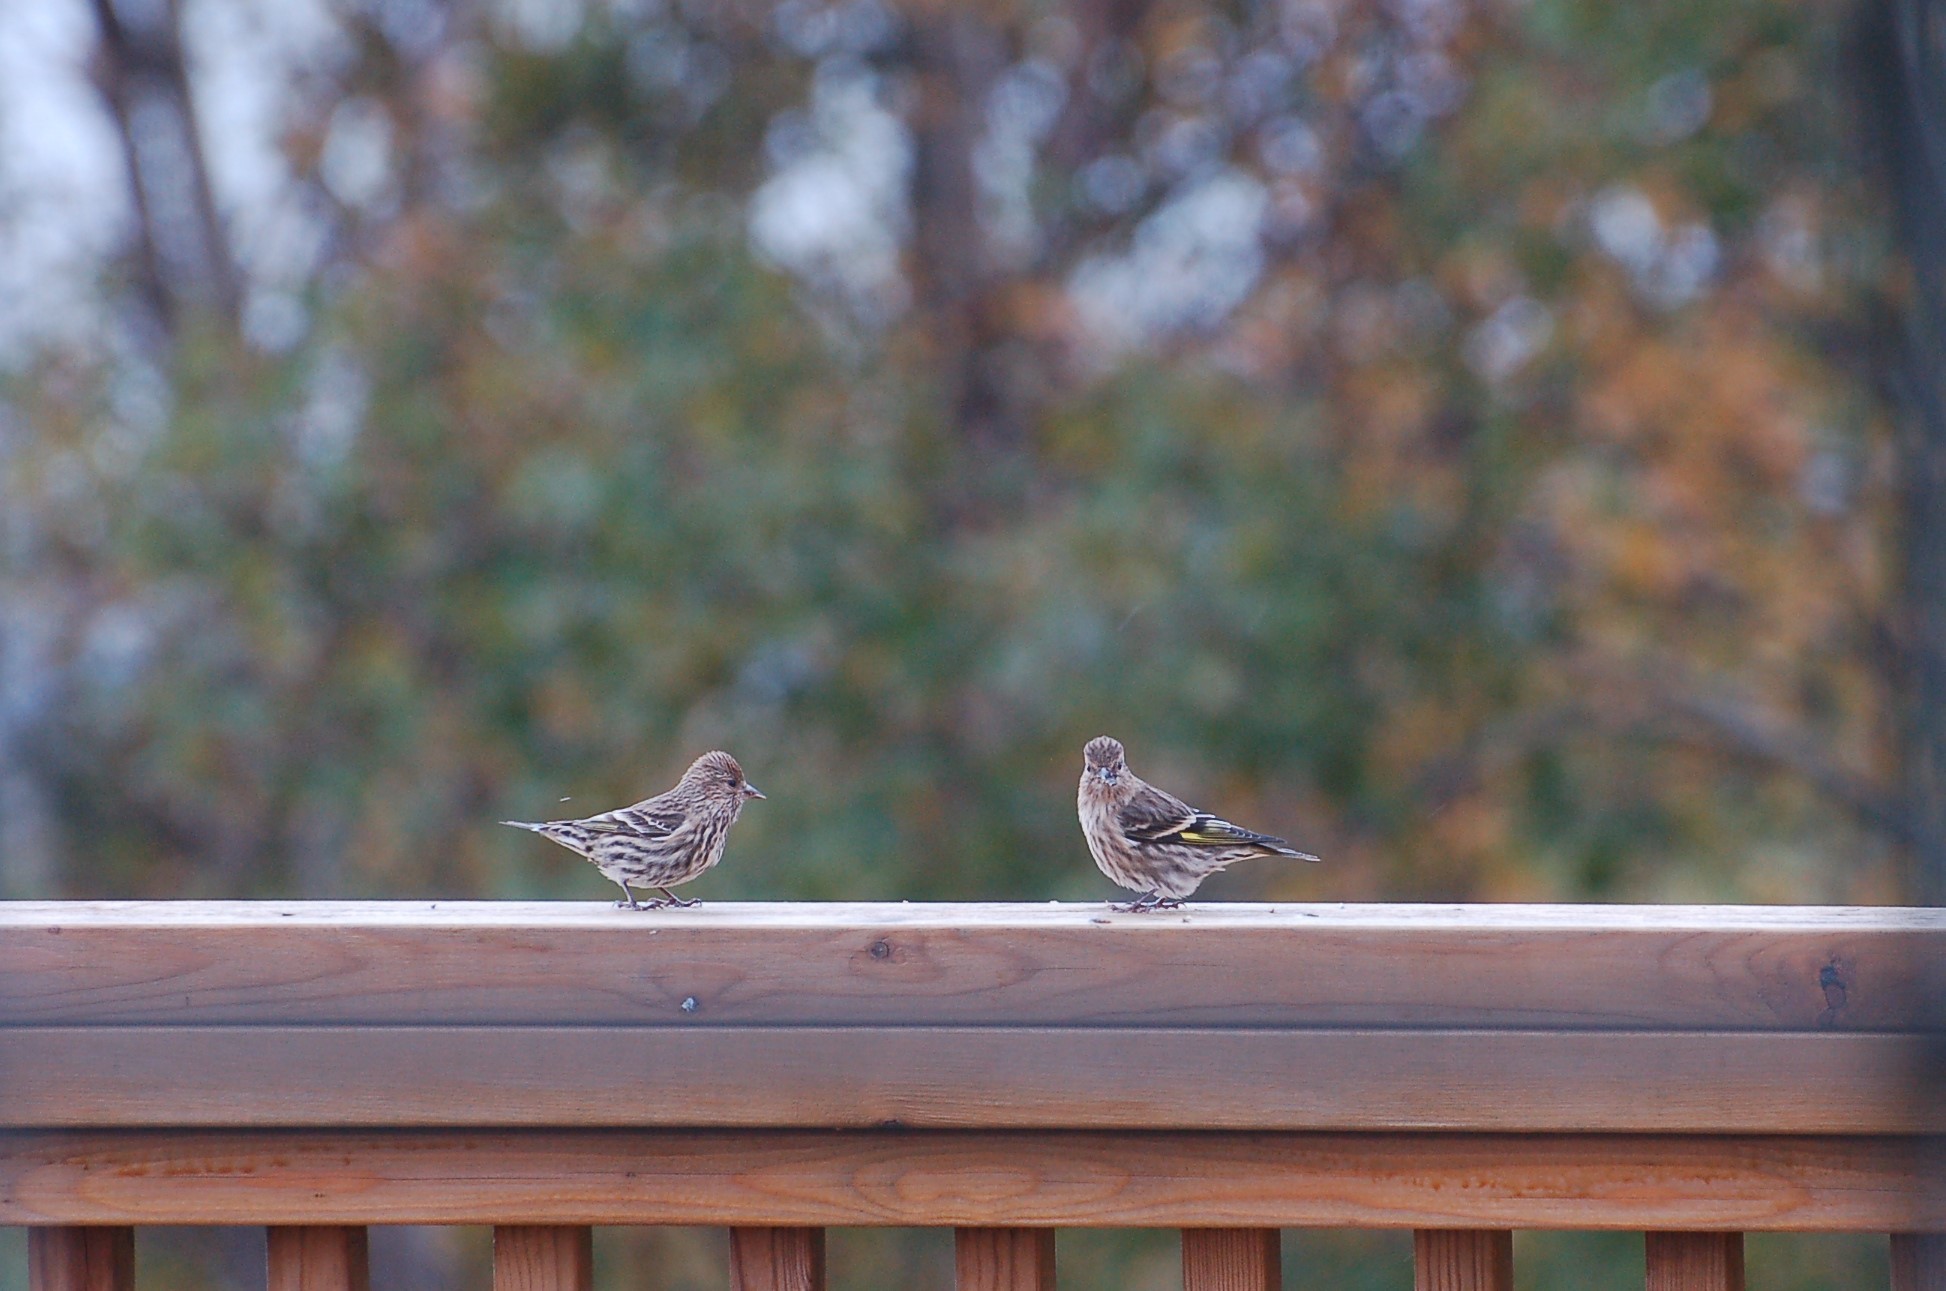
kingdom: Animalia
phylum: Chordata
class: Aves
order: Passeriformes
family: Fringillidae
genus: Spinus
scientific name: Spinus pinus
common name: Pine siskin
